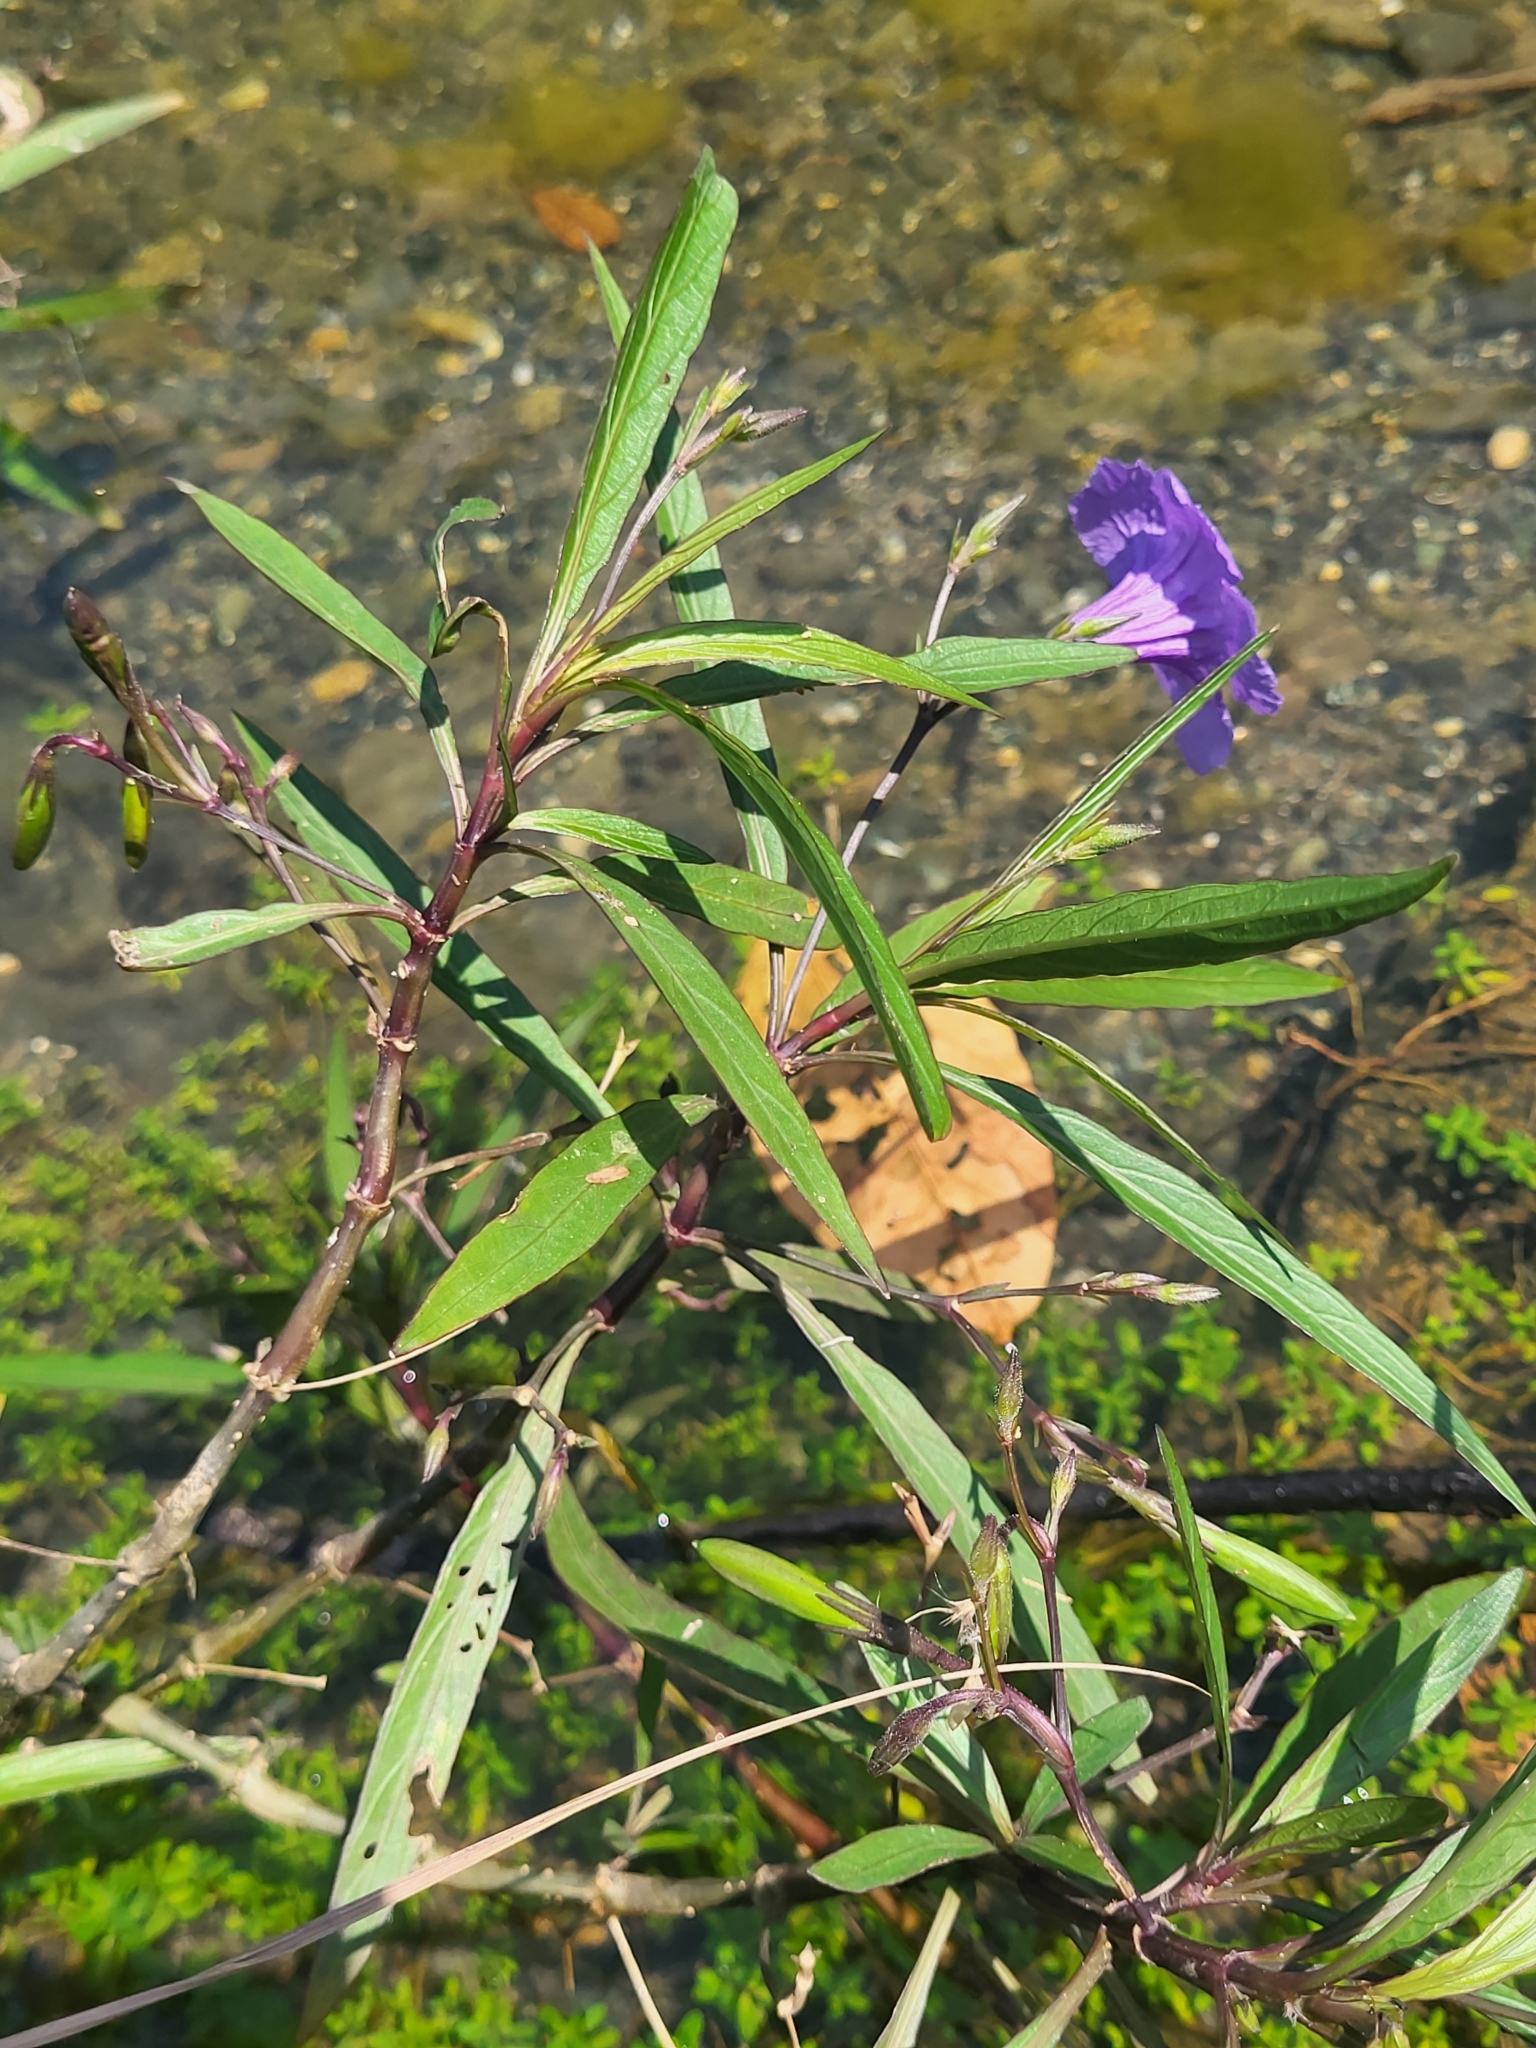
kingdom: Plantae
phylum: Tracheophyta
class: Magnoliopsida
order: Lamiales
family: Acanthaceae
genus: Ruellia
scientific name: Ruellia simplex
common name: Softseed wild petunia
